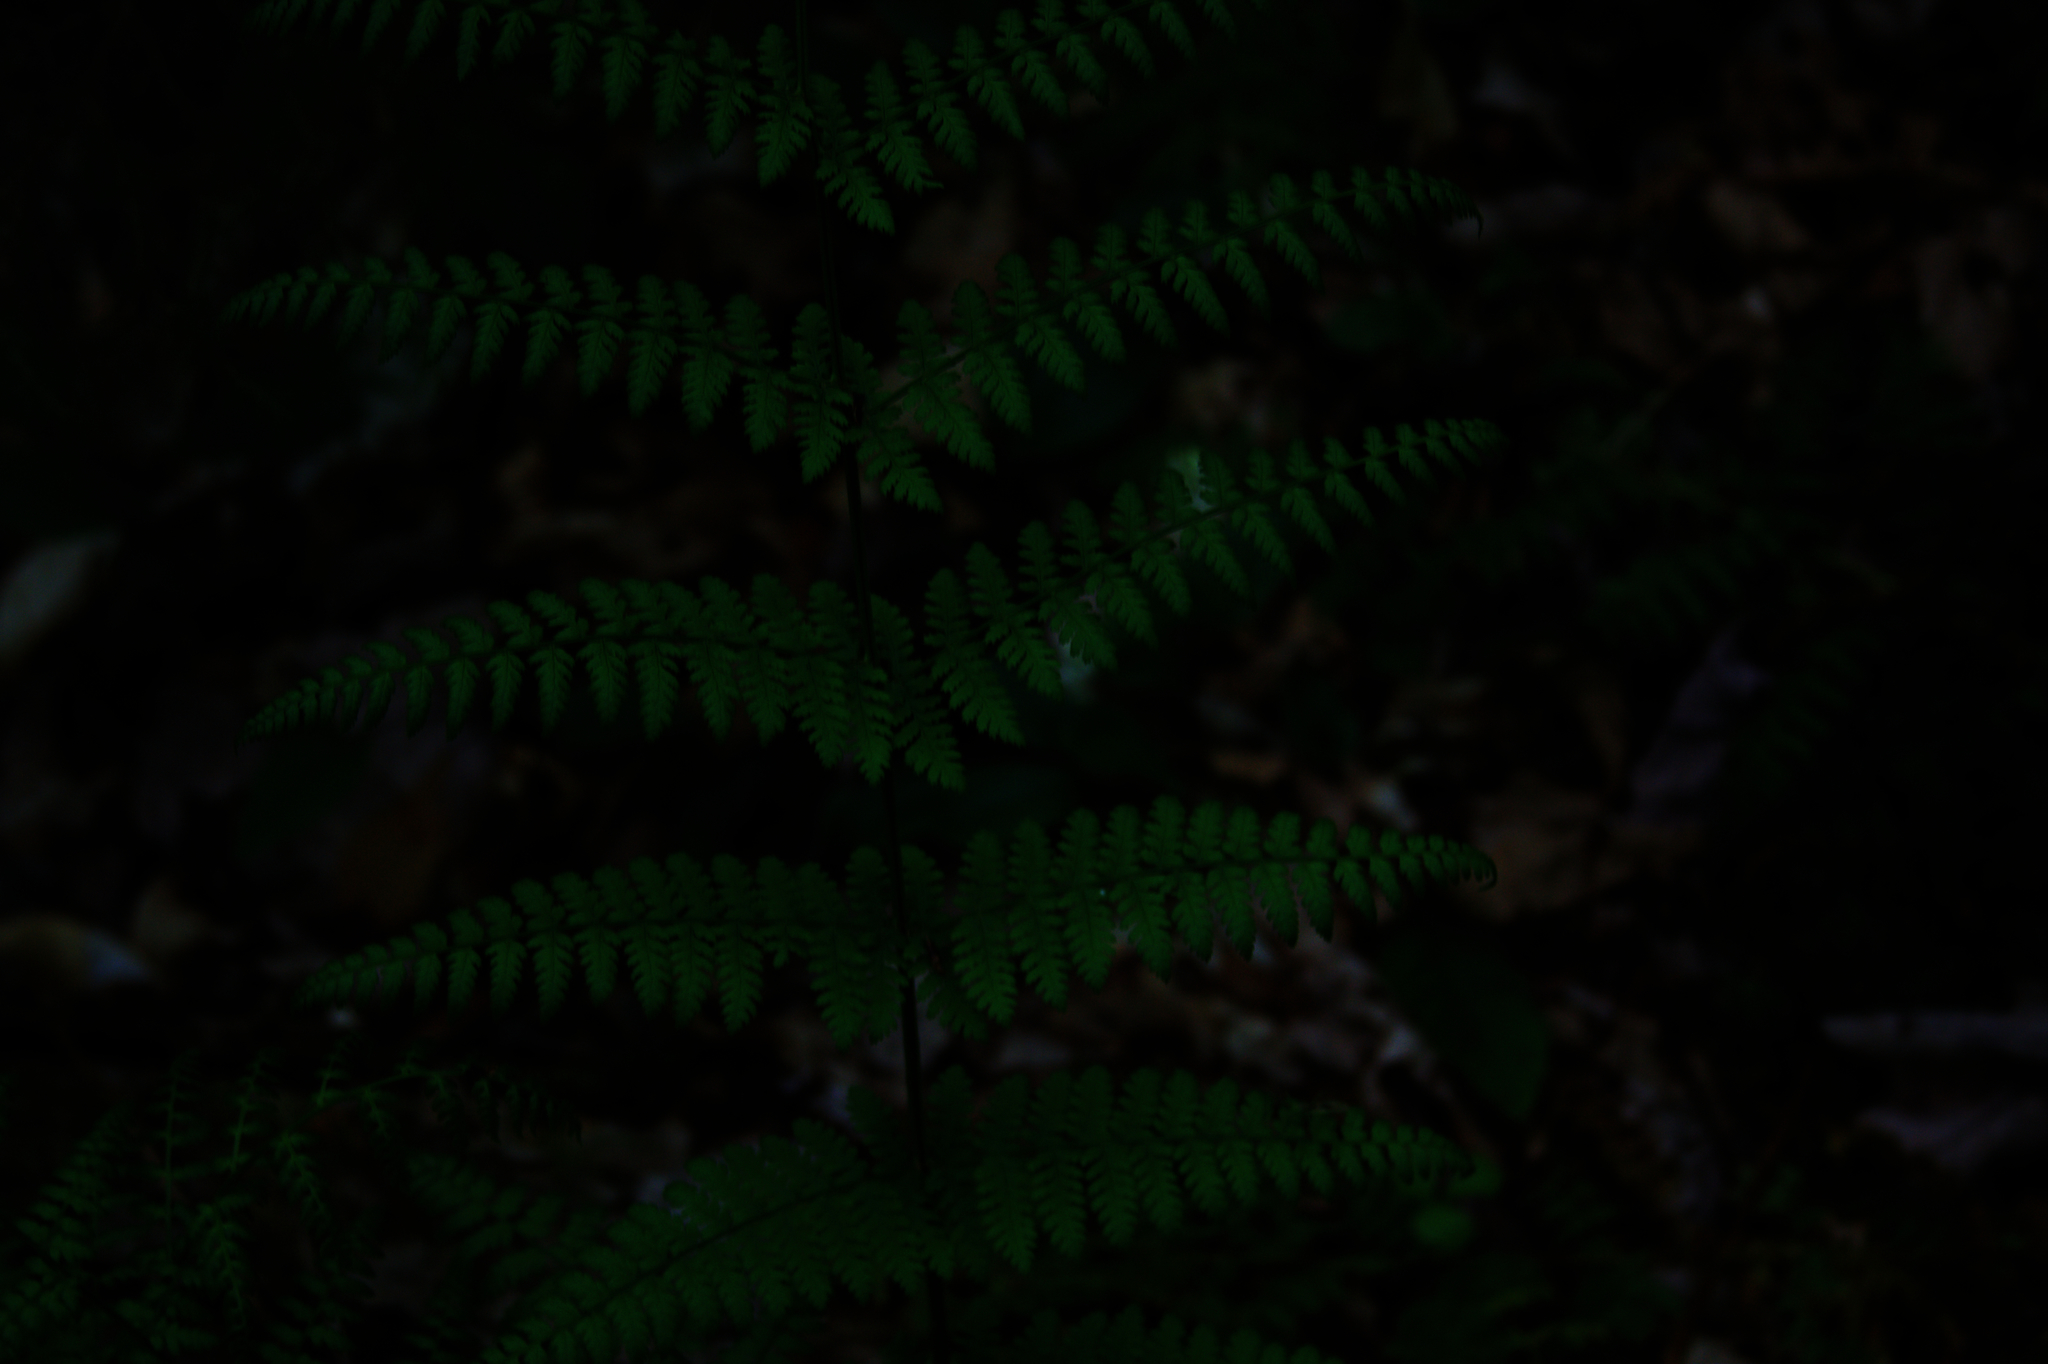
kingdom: Plantae
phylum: Tracheophyta
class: Polypodiopsida
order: Polypodiales
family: Dryopteridaceae
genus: Dryopteris
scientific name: Dryopteris intermedia
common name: Evergreen wood fern
